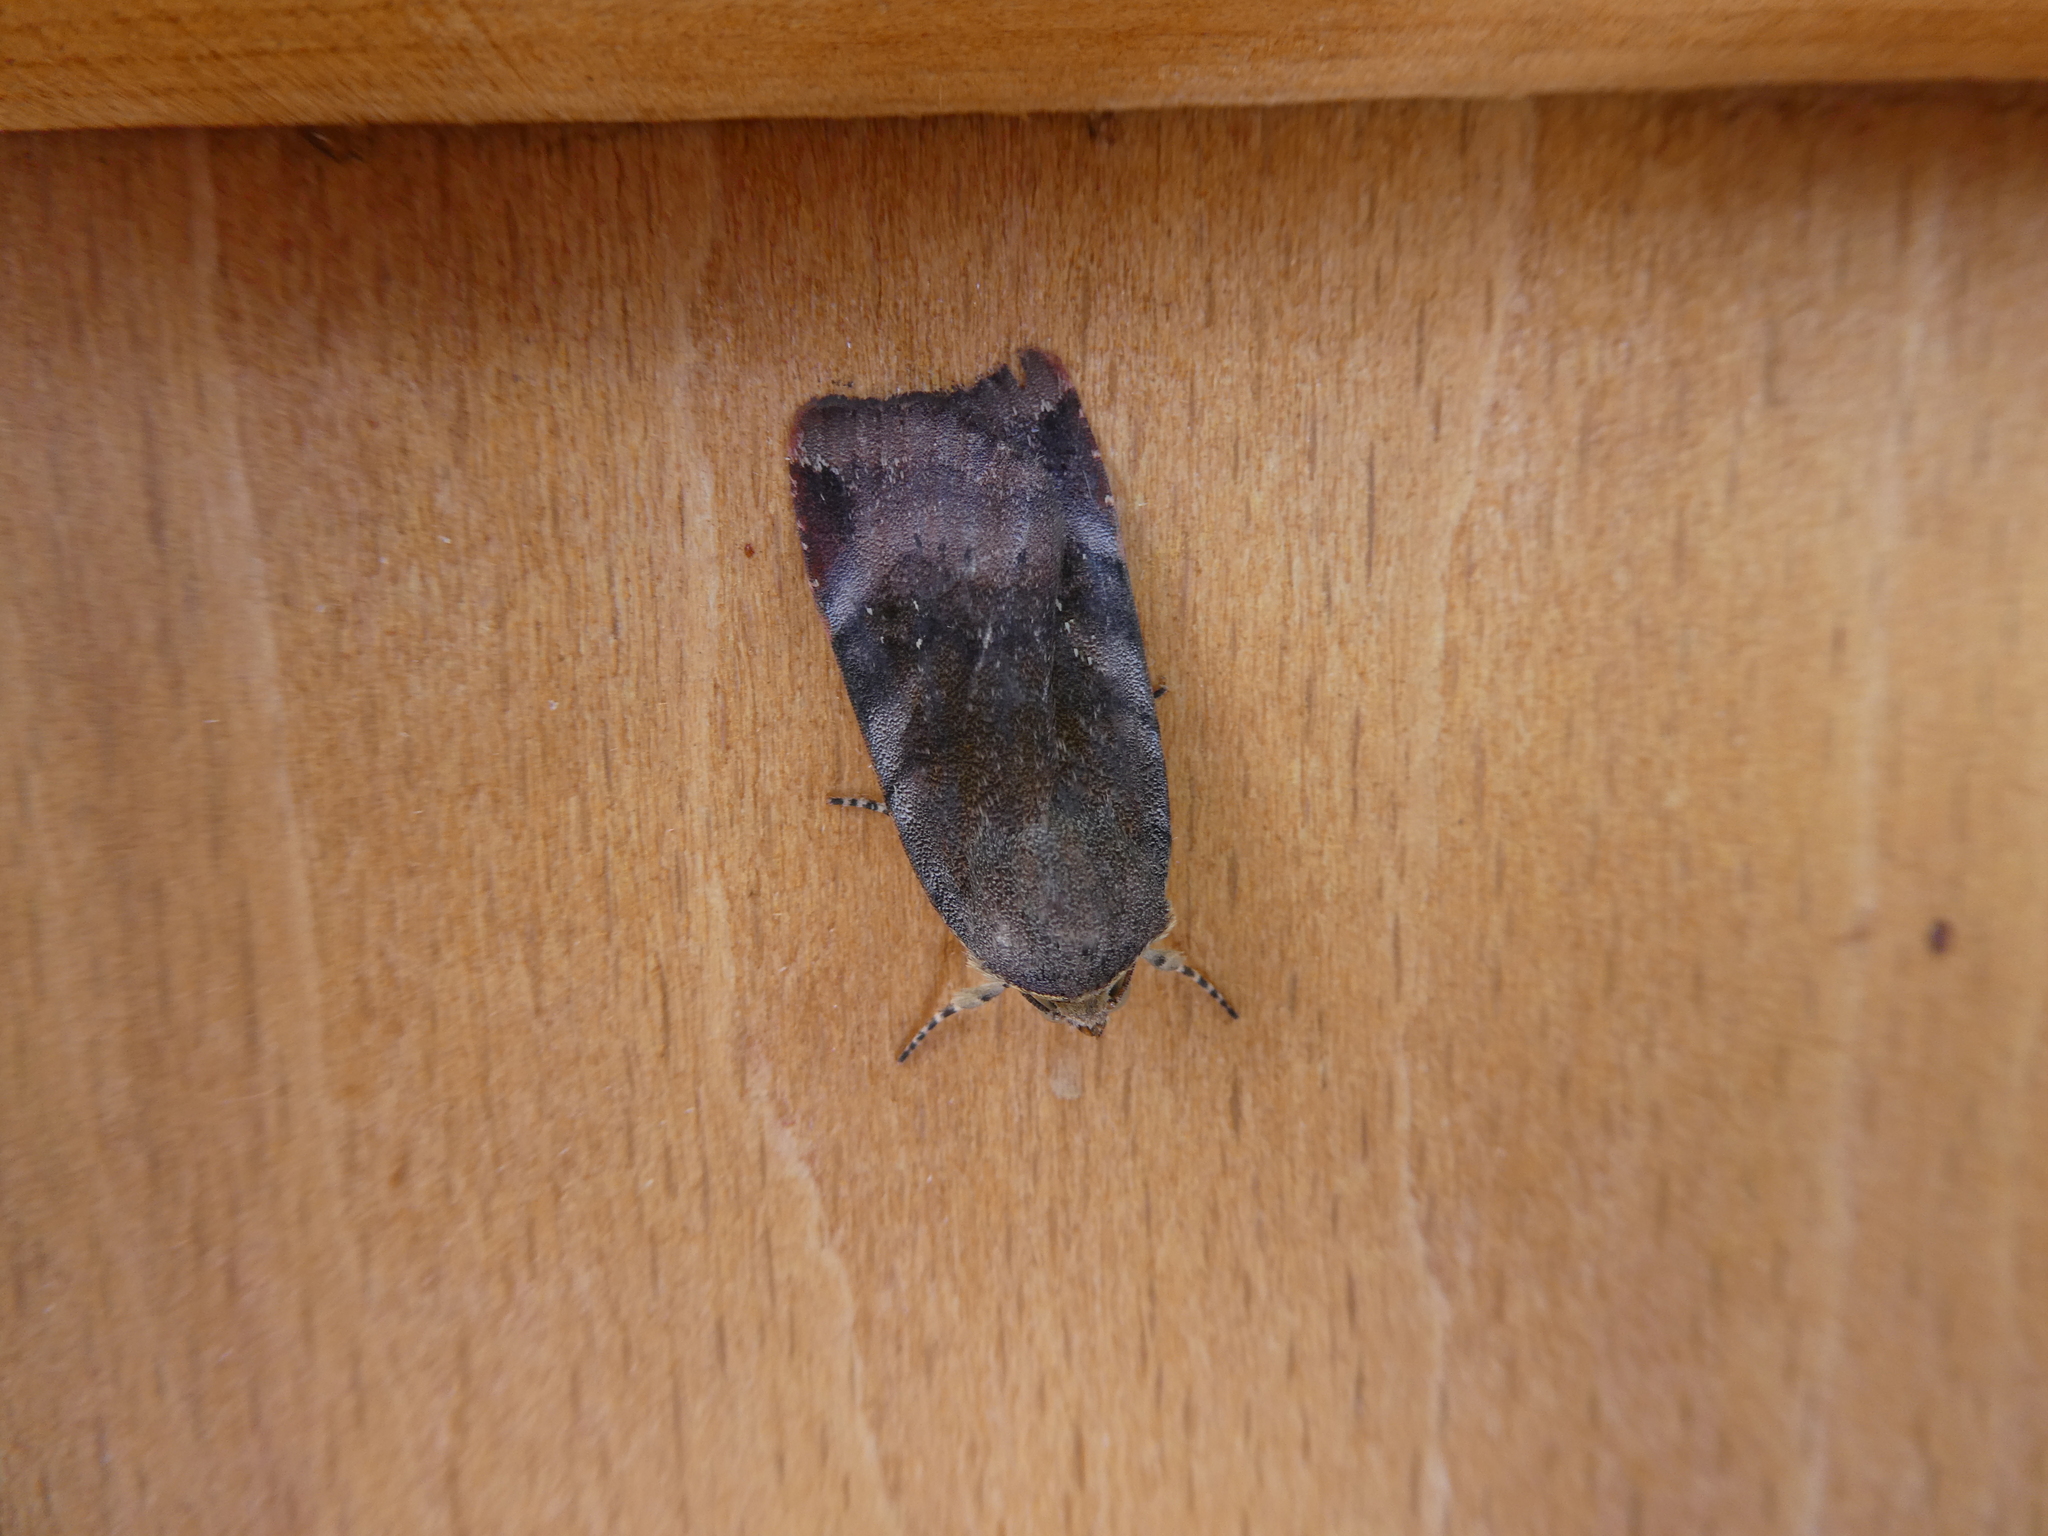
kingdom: Animalia
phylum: Arthropoda
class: Insecta
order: Lepidoptera
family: Noctuidae
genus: Noctua
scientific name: Noctua janthe
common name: Lesser broad-bordered yellow underwing
